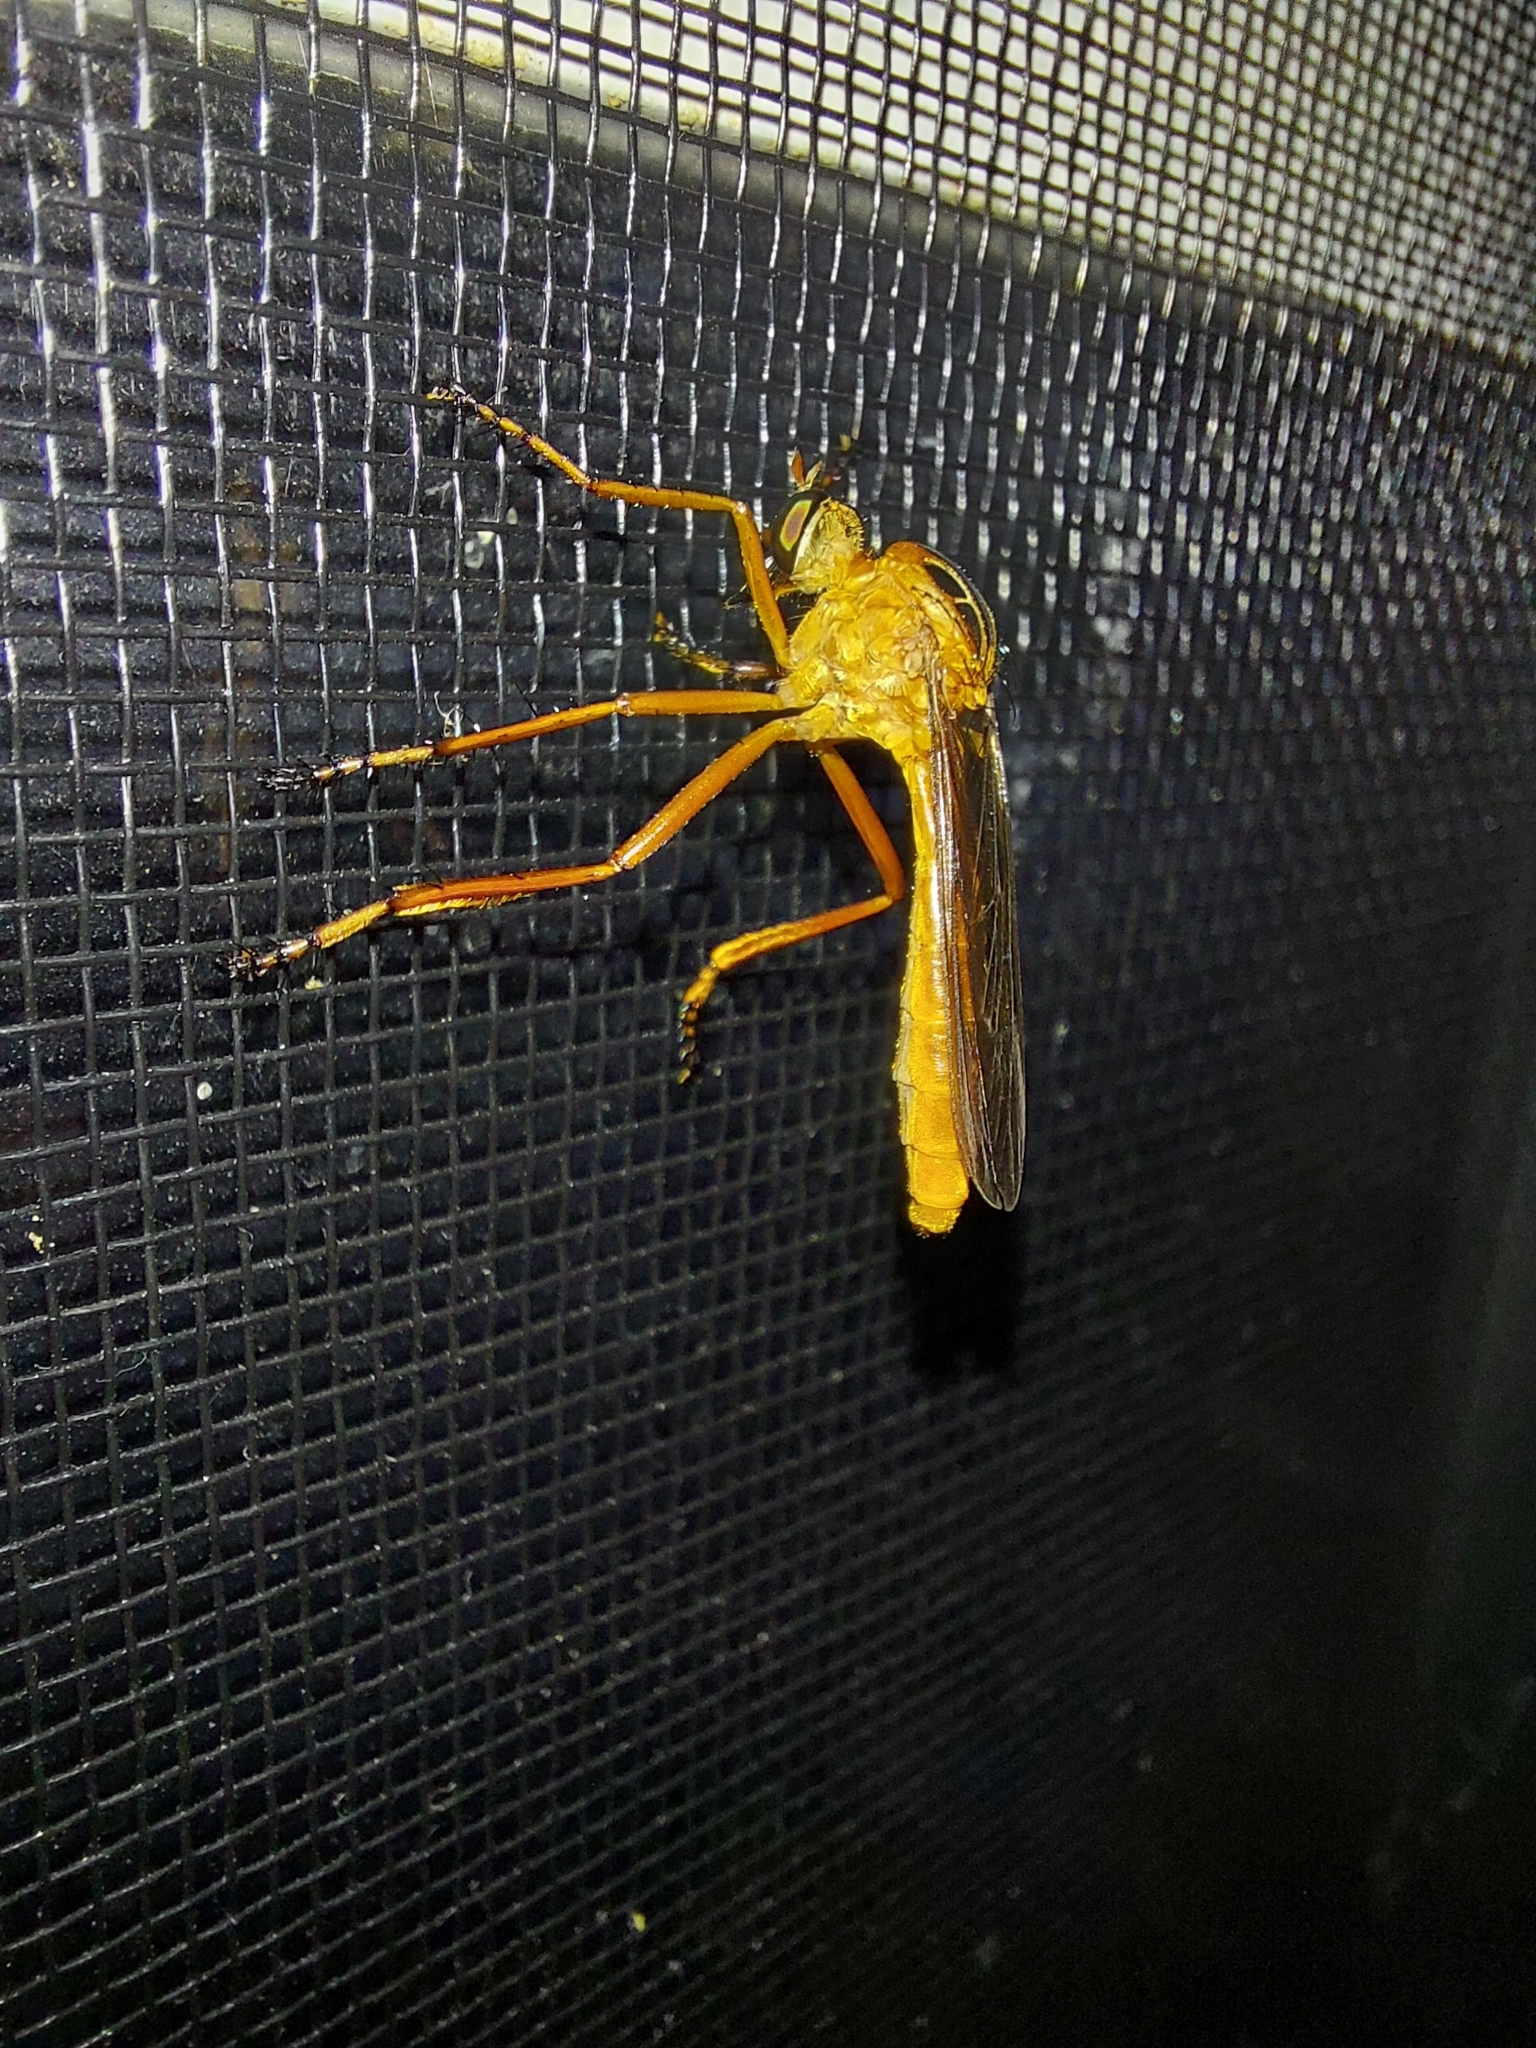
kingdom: Animalia
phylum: Arthropoda
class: Insecta
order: Diptera
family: Asilidae
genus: Diogmites
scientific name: Diogmites neoternatus
